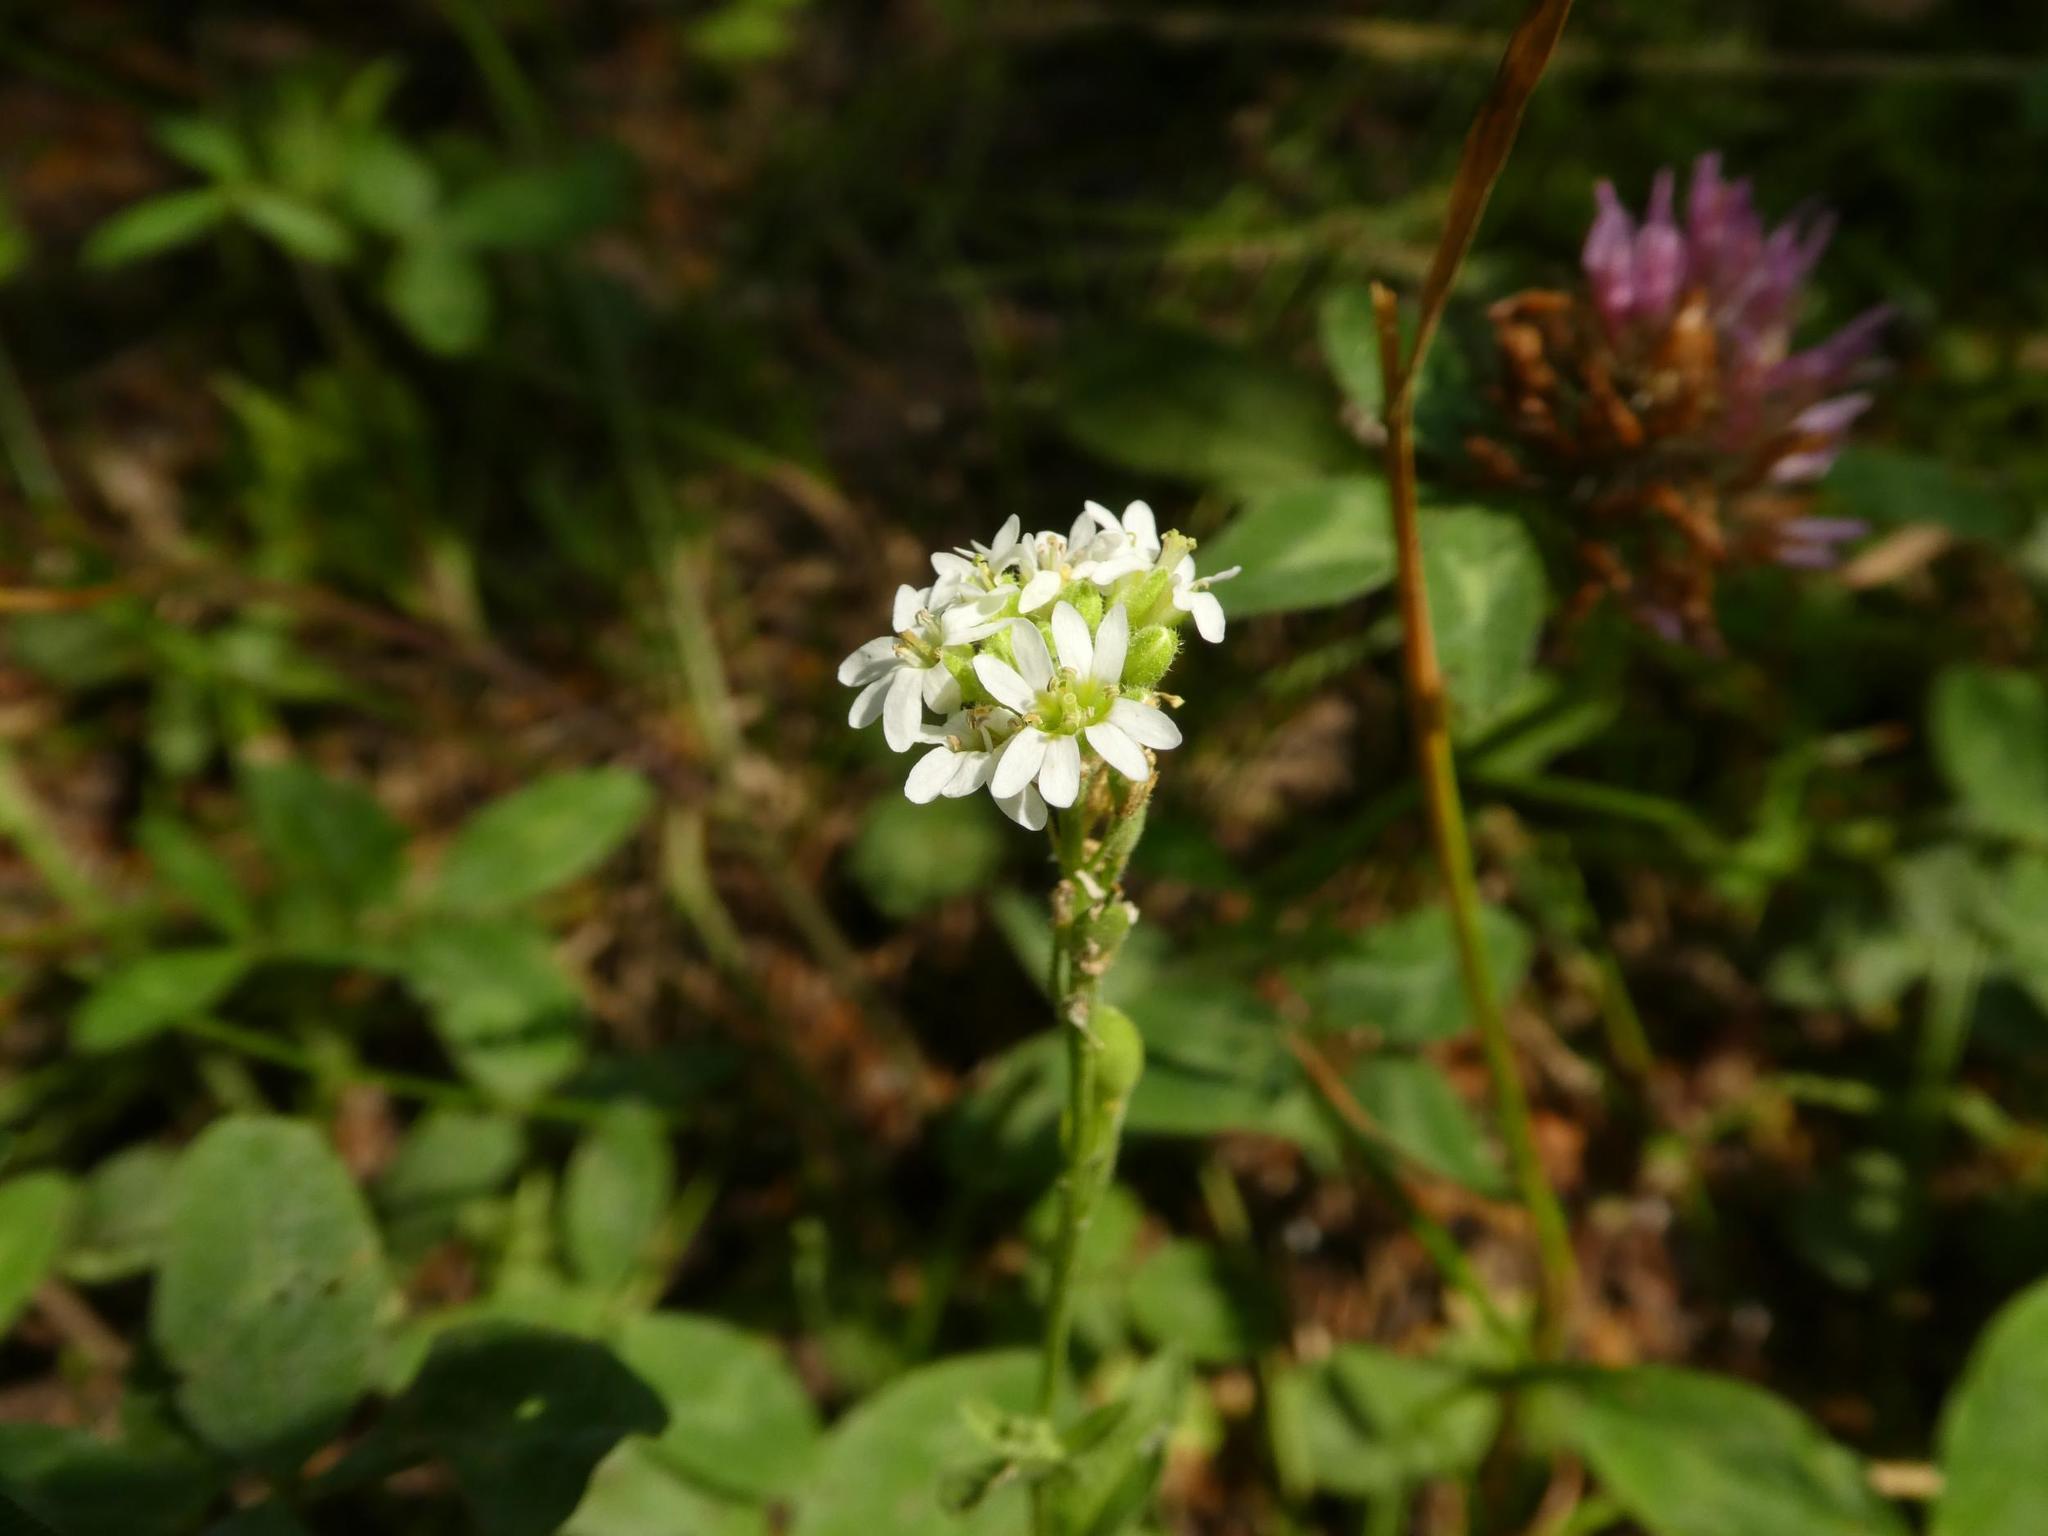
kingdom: Plantae
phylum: Tracheophyta
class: Magnoliopsida
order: Brassicales
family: Brassicaceae
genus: Berteroa
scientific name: Berteroa incana
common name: Hoary alison
